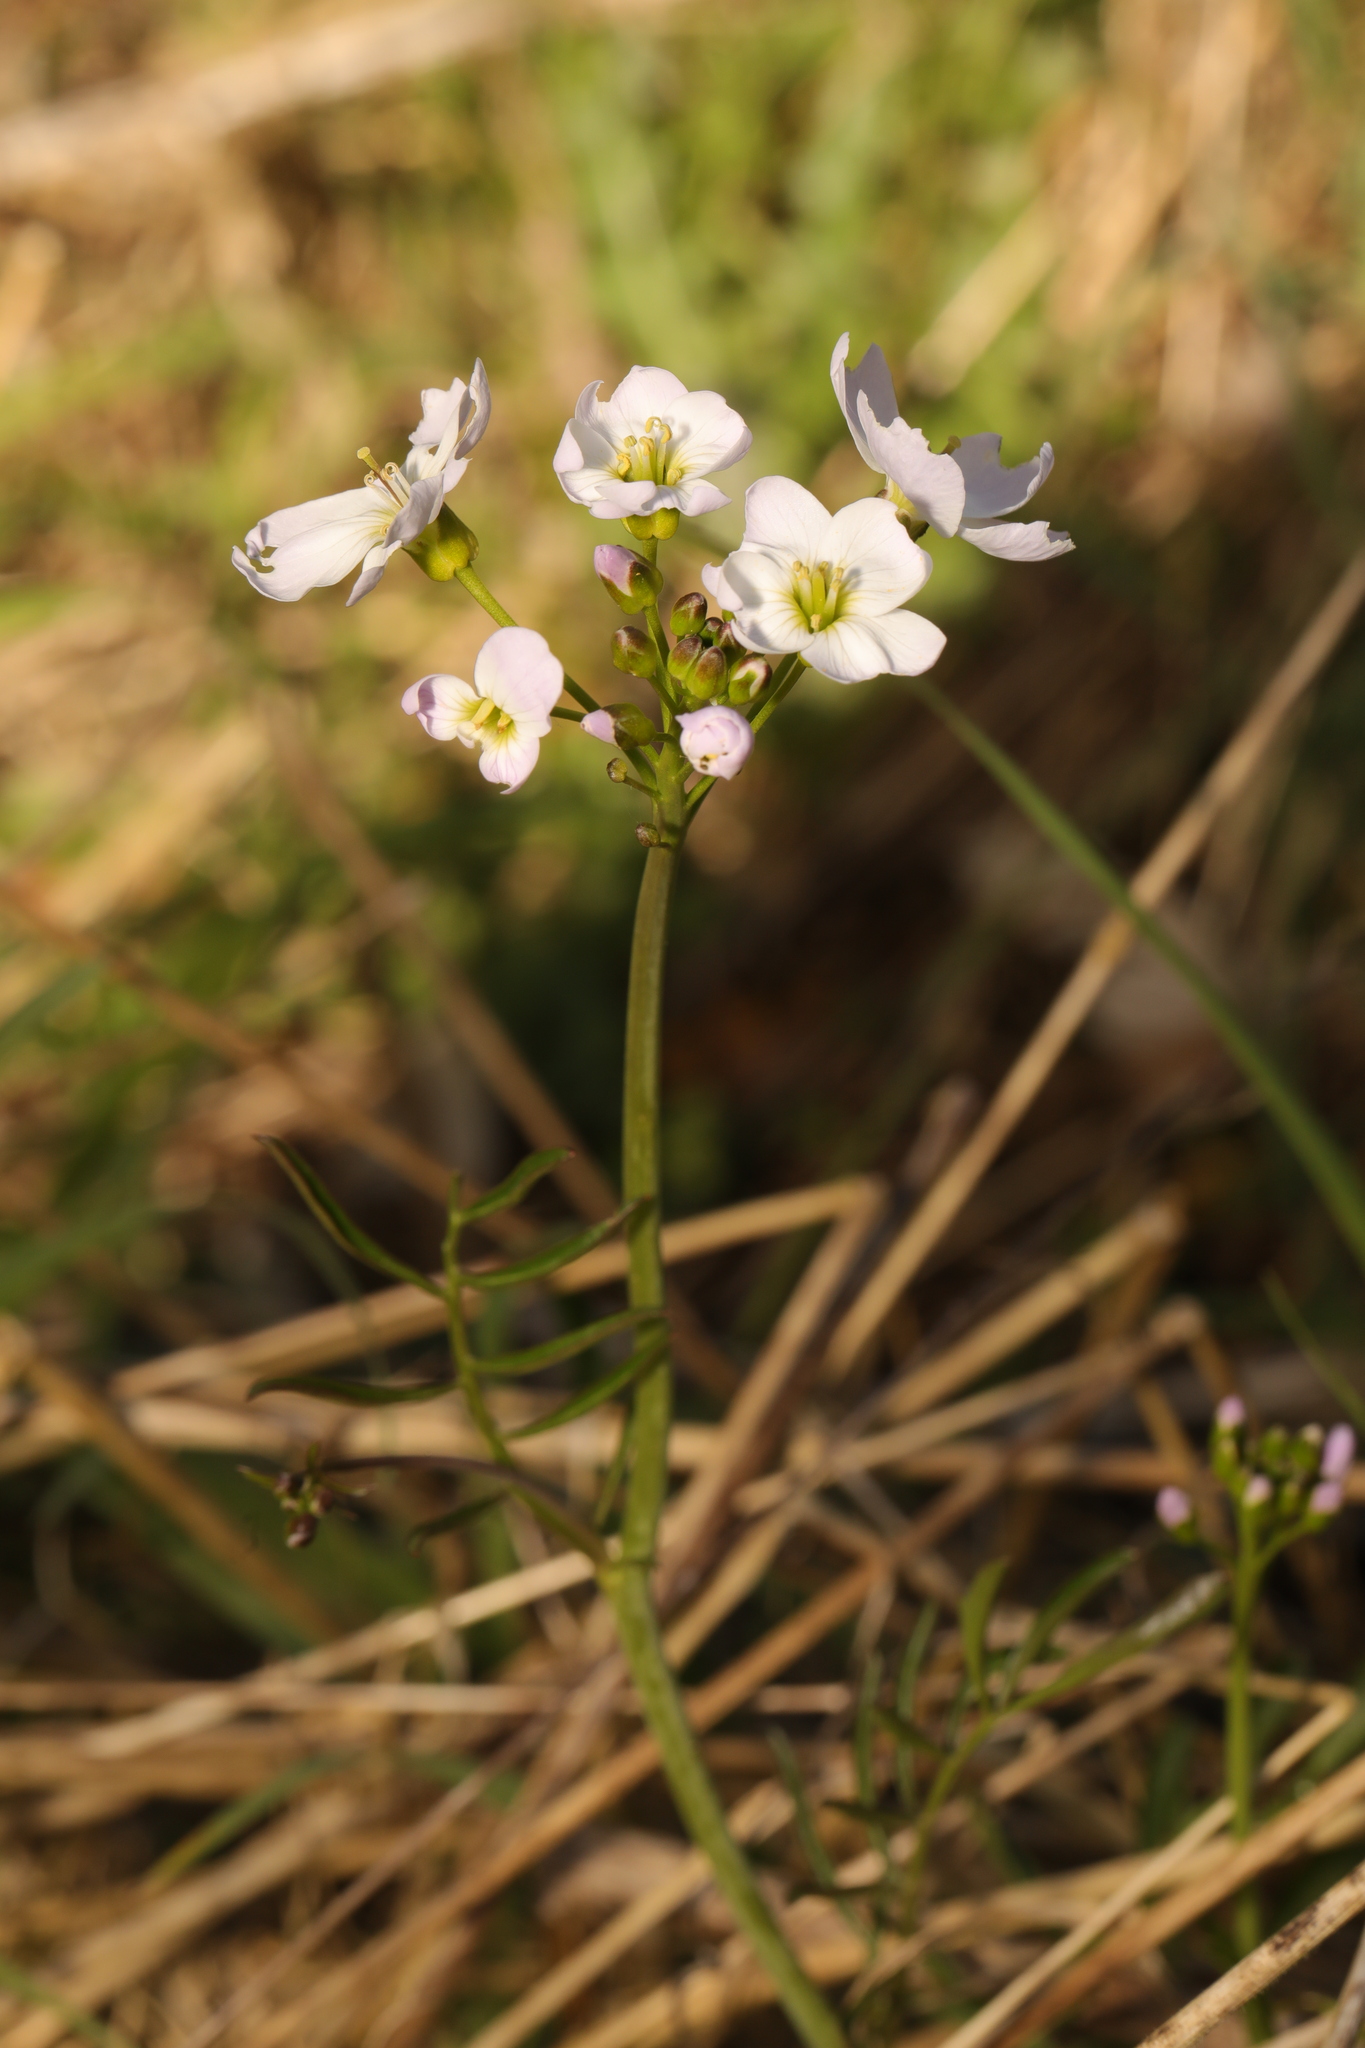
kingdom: Plantae
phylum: Tracheophyta
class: Magnoliopsida
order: Brassicales
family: Brassicaceae
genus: Cardamine
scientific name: Cardamine pratensis
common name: Cuckoo flower
